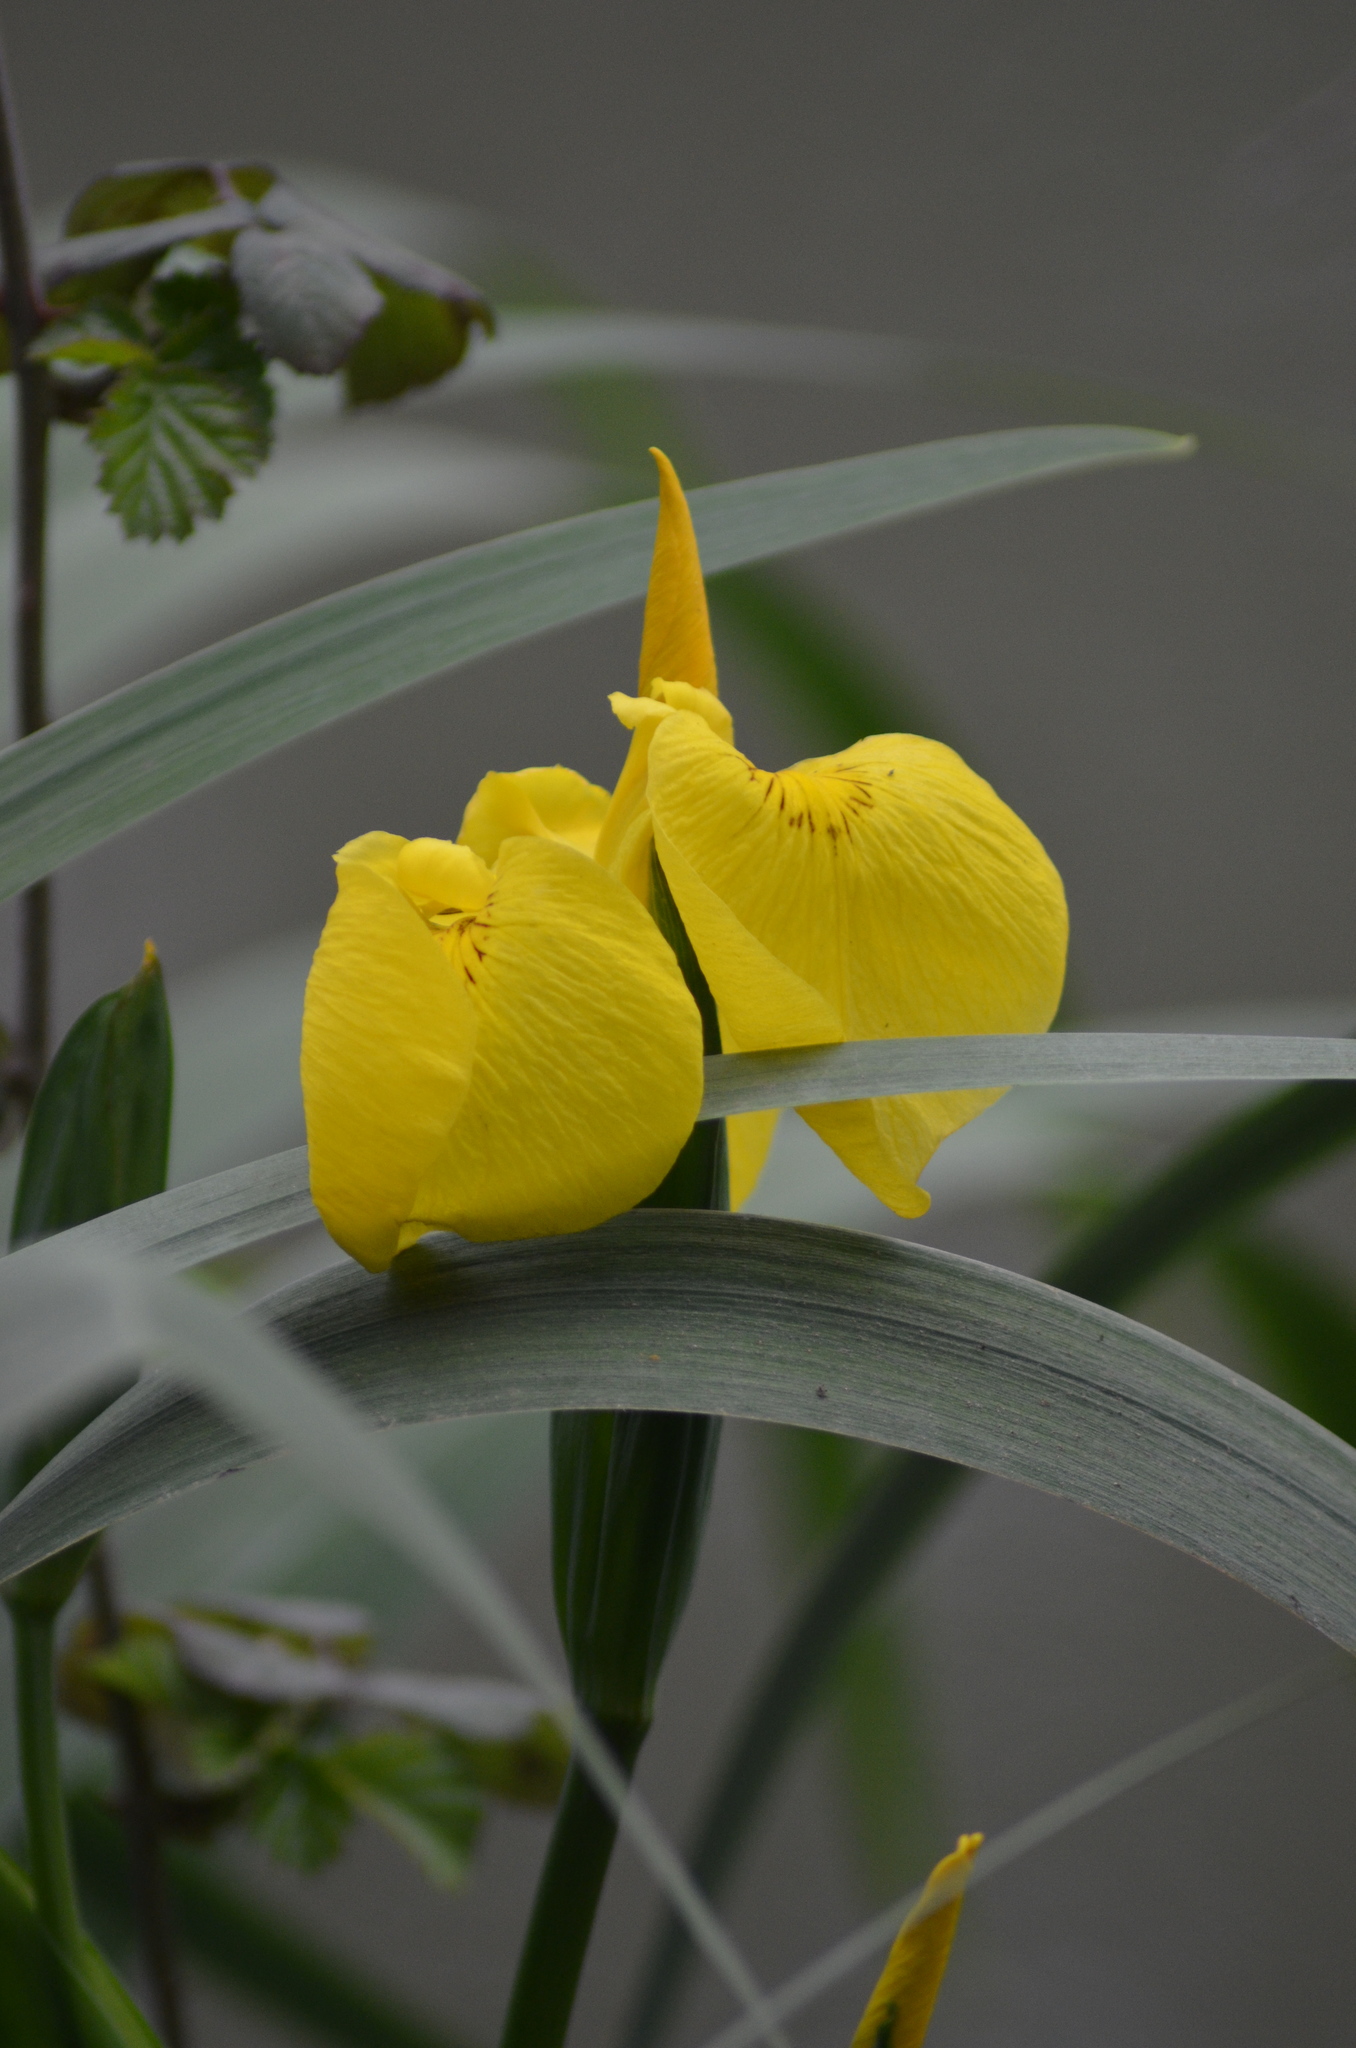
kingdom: Plantae
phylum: Tracheophyta
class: Liliopsida
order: Asparagales
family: Iridaceae
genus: Iris
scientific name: Iris pseudacorus
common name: Yellow flag
